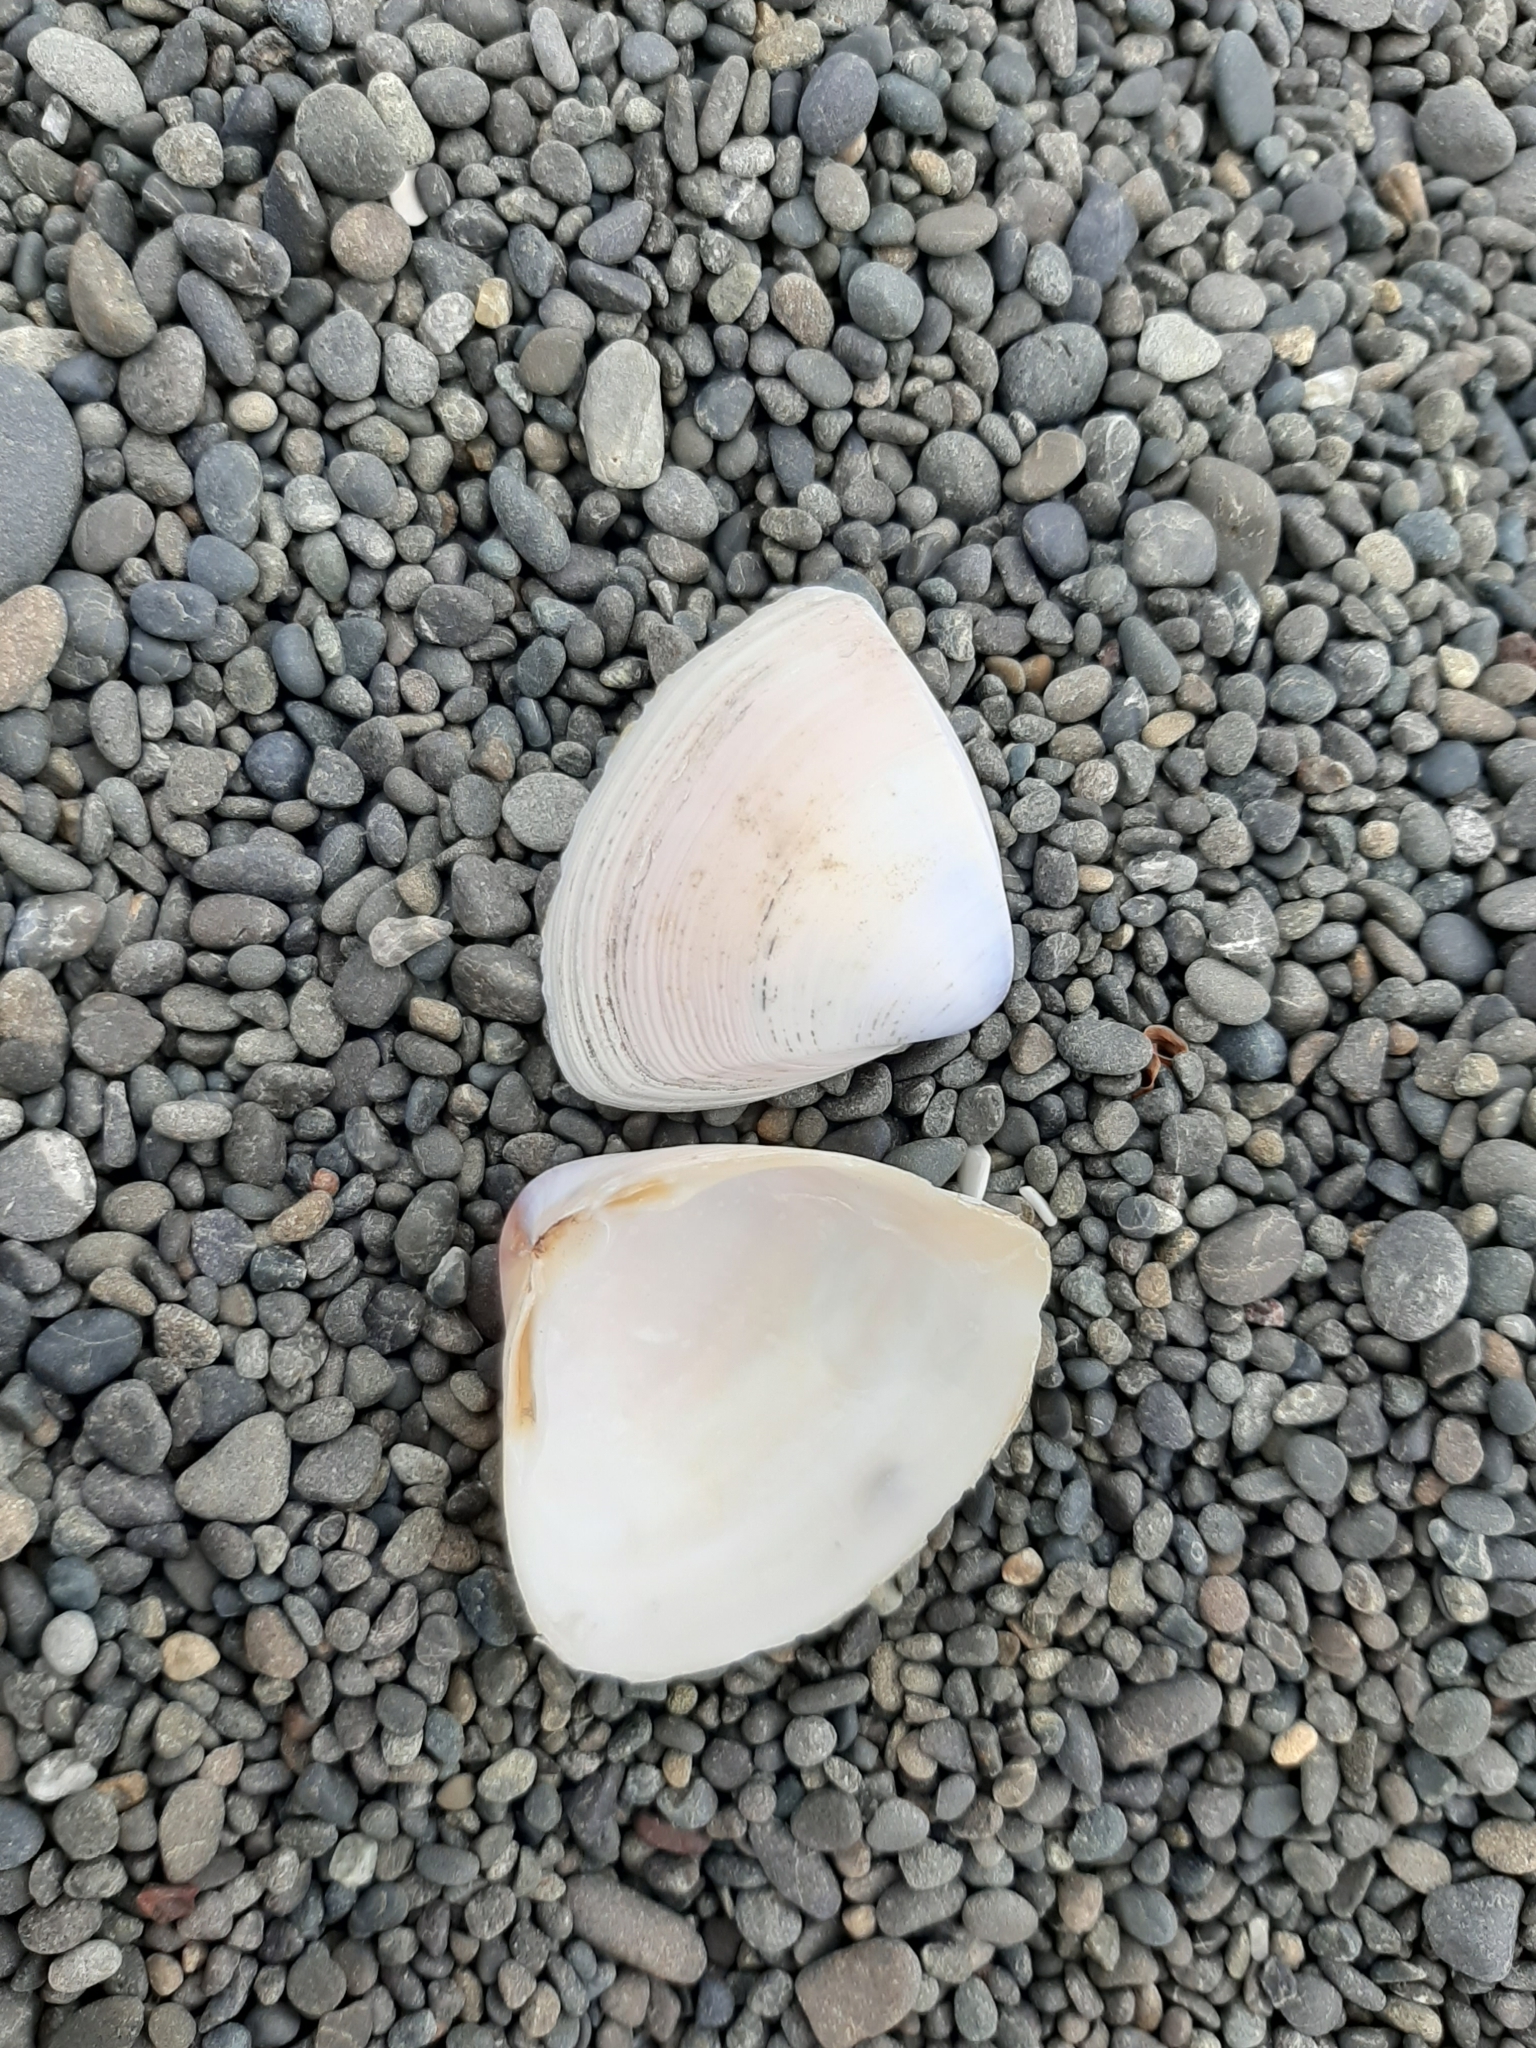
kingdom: Animalia
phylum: Mollusca
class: Bivalvia
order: Venerida
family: Mactridae
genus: Crassula
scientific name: Crassula aequilatera
